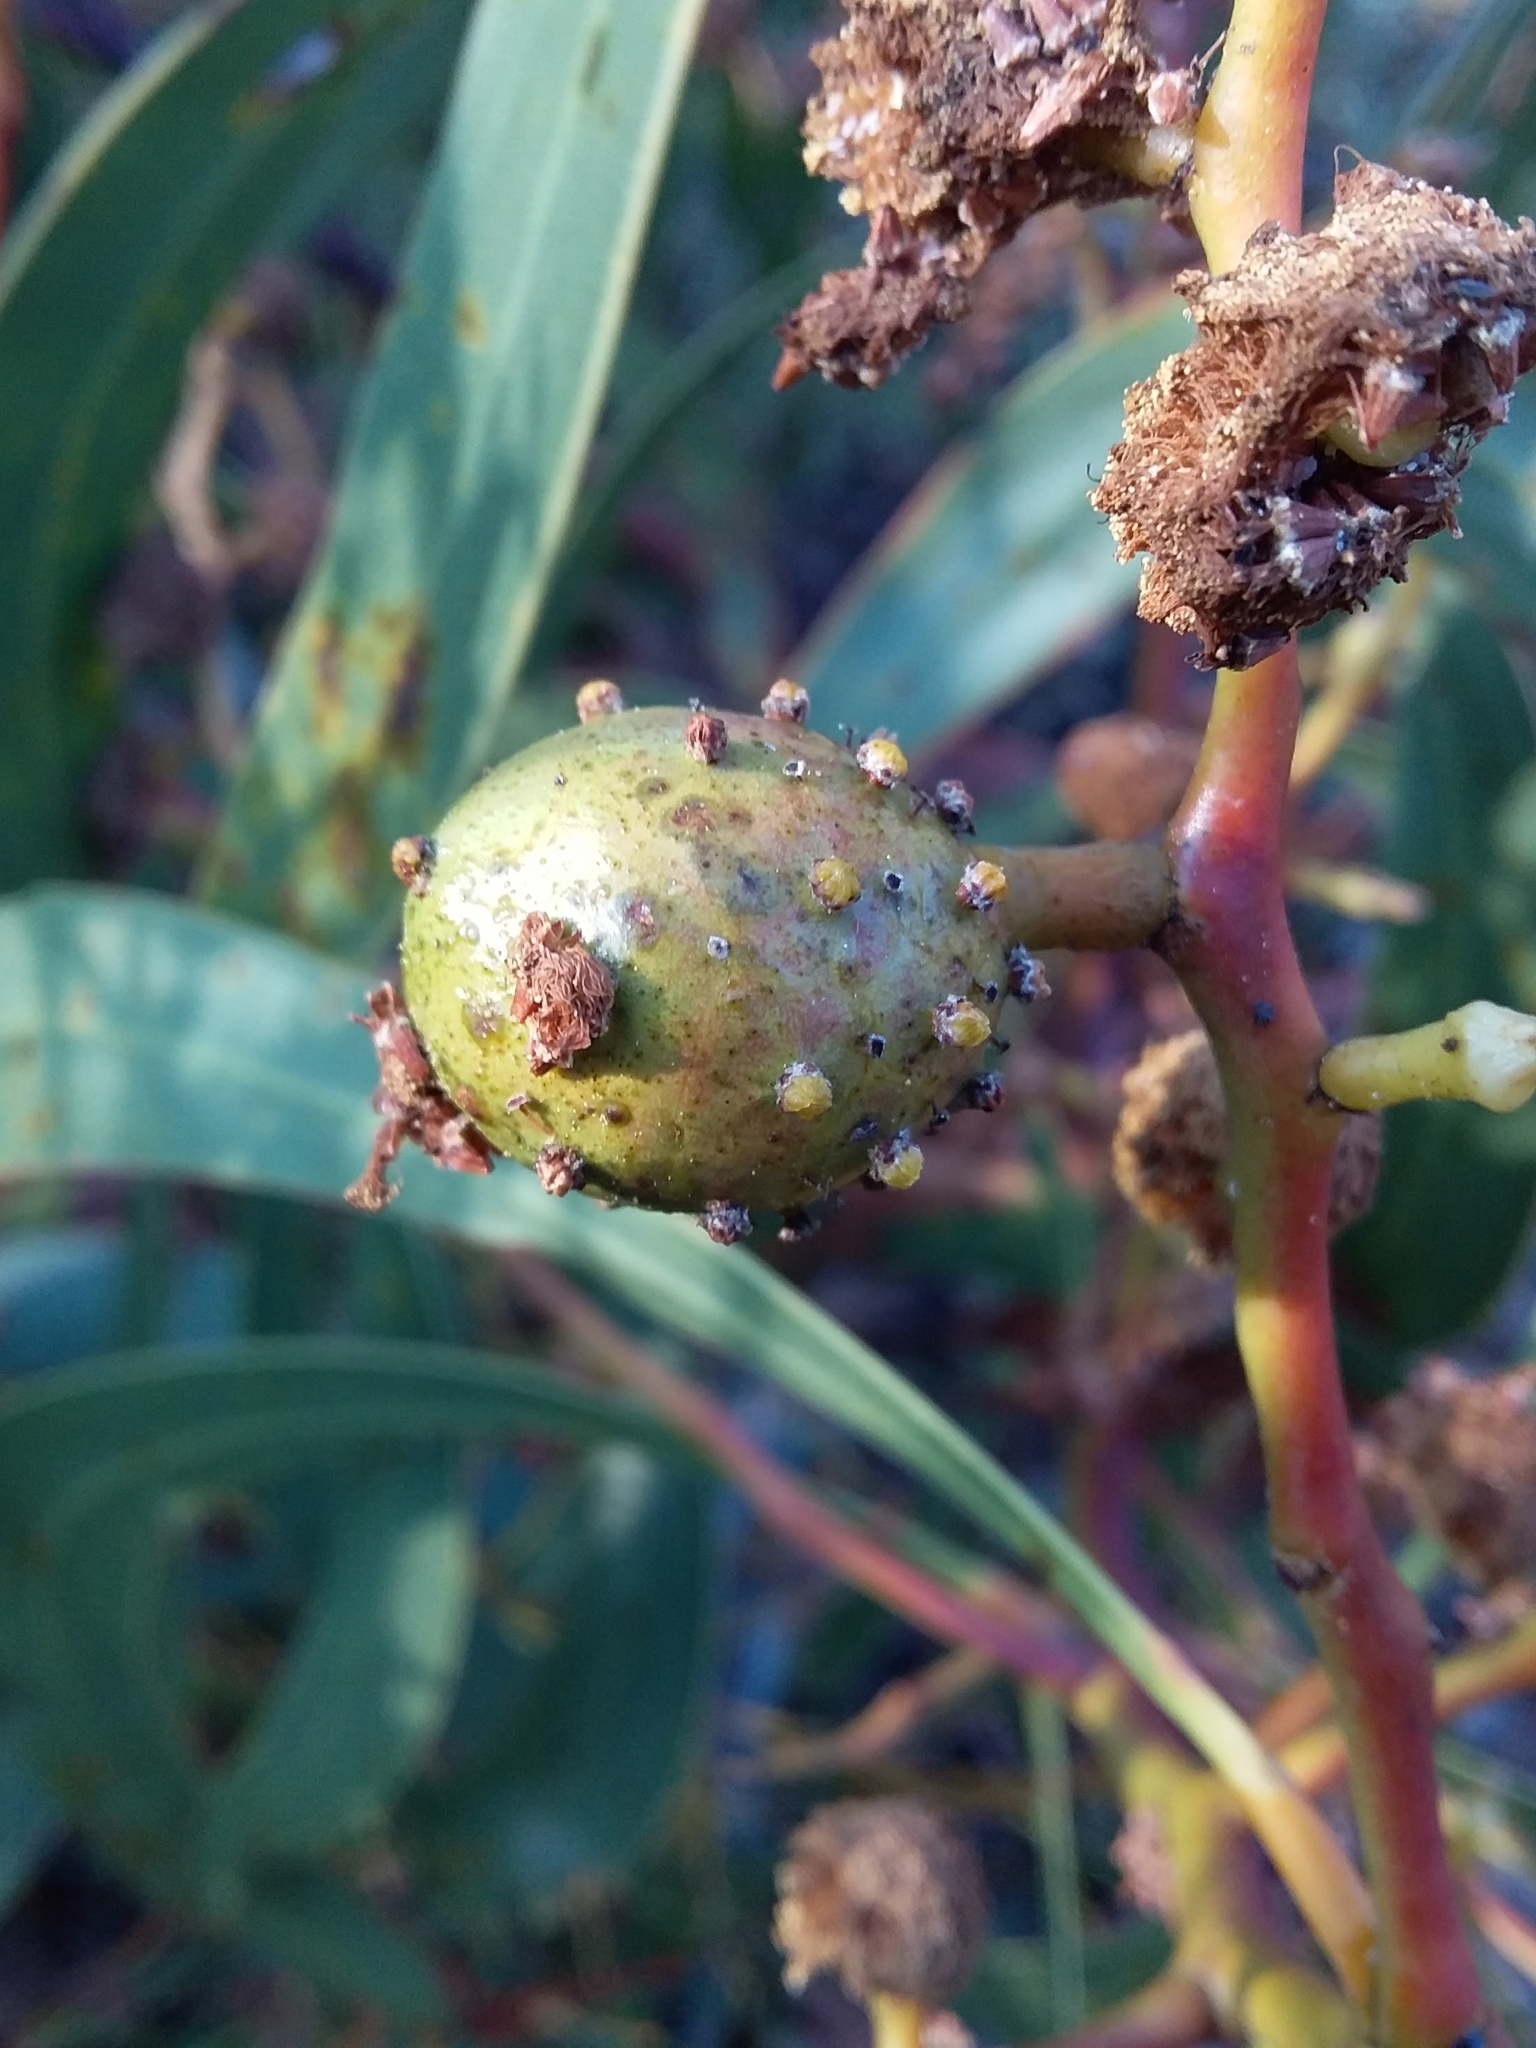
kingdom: Animalia
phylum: Arthropoda
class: Insecta
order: Hymenoptera
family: Pteromalidae
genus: Trichilogaster
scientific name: Trichilogaster signiventris
